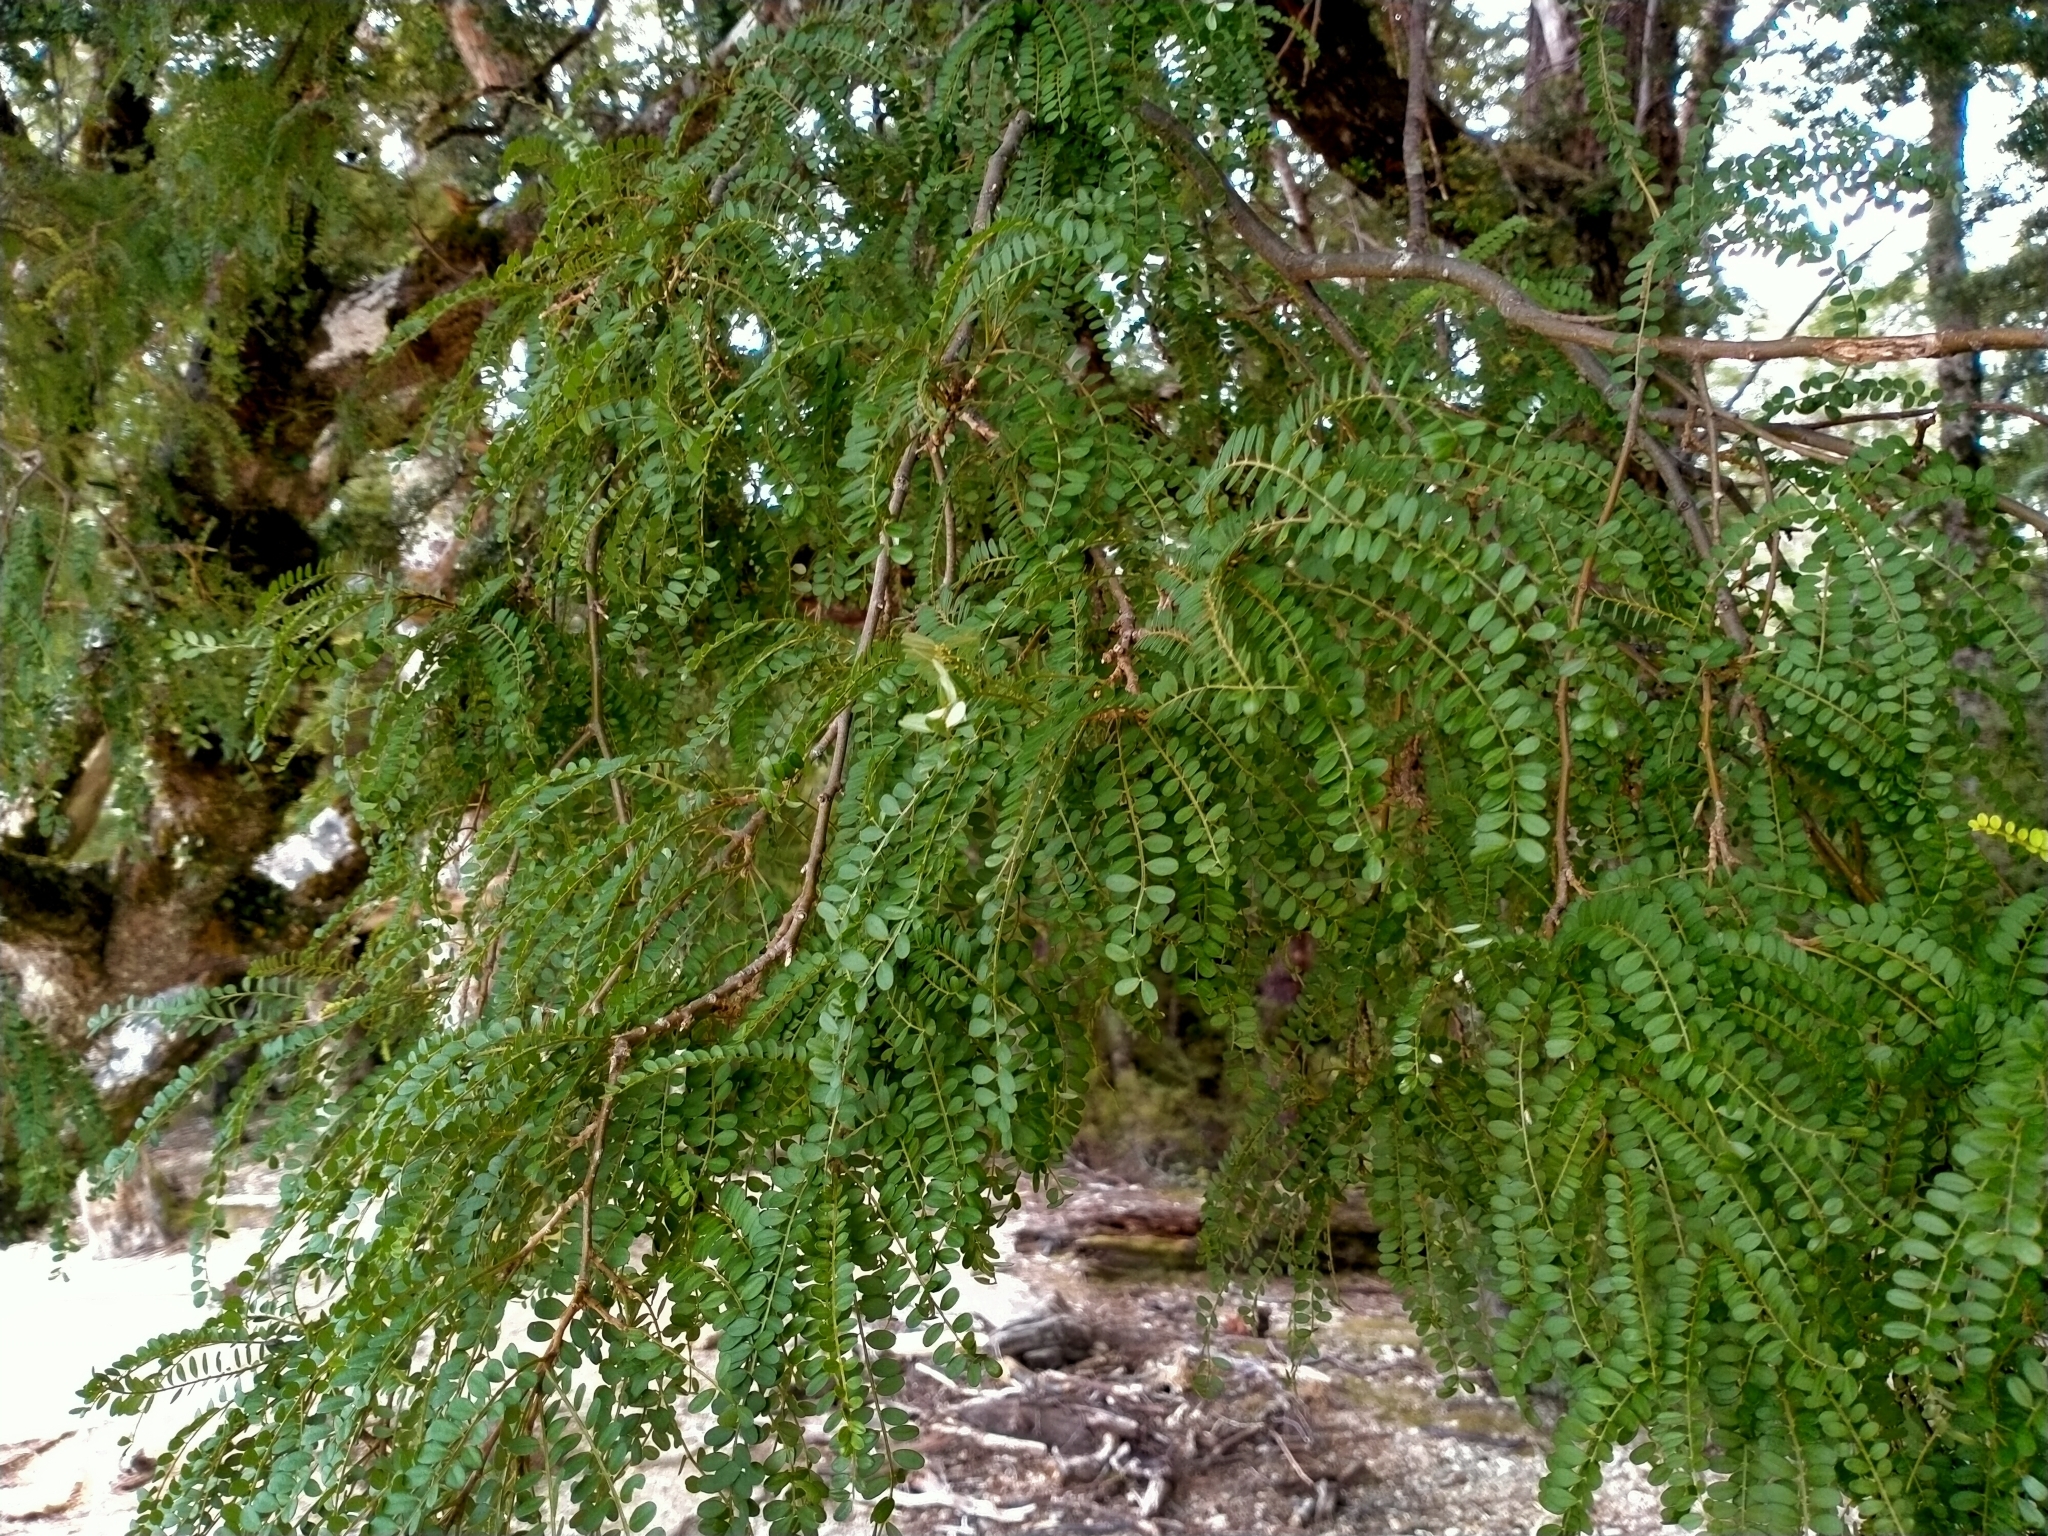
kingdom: Plantae
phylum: Tracheophyta
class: Magnoliopsida
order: Fabales
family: Fabaceae
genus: Sophora
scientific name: Sophora microphylla
